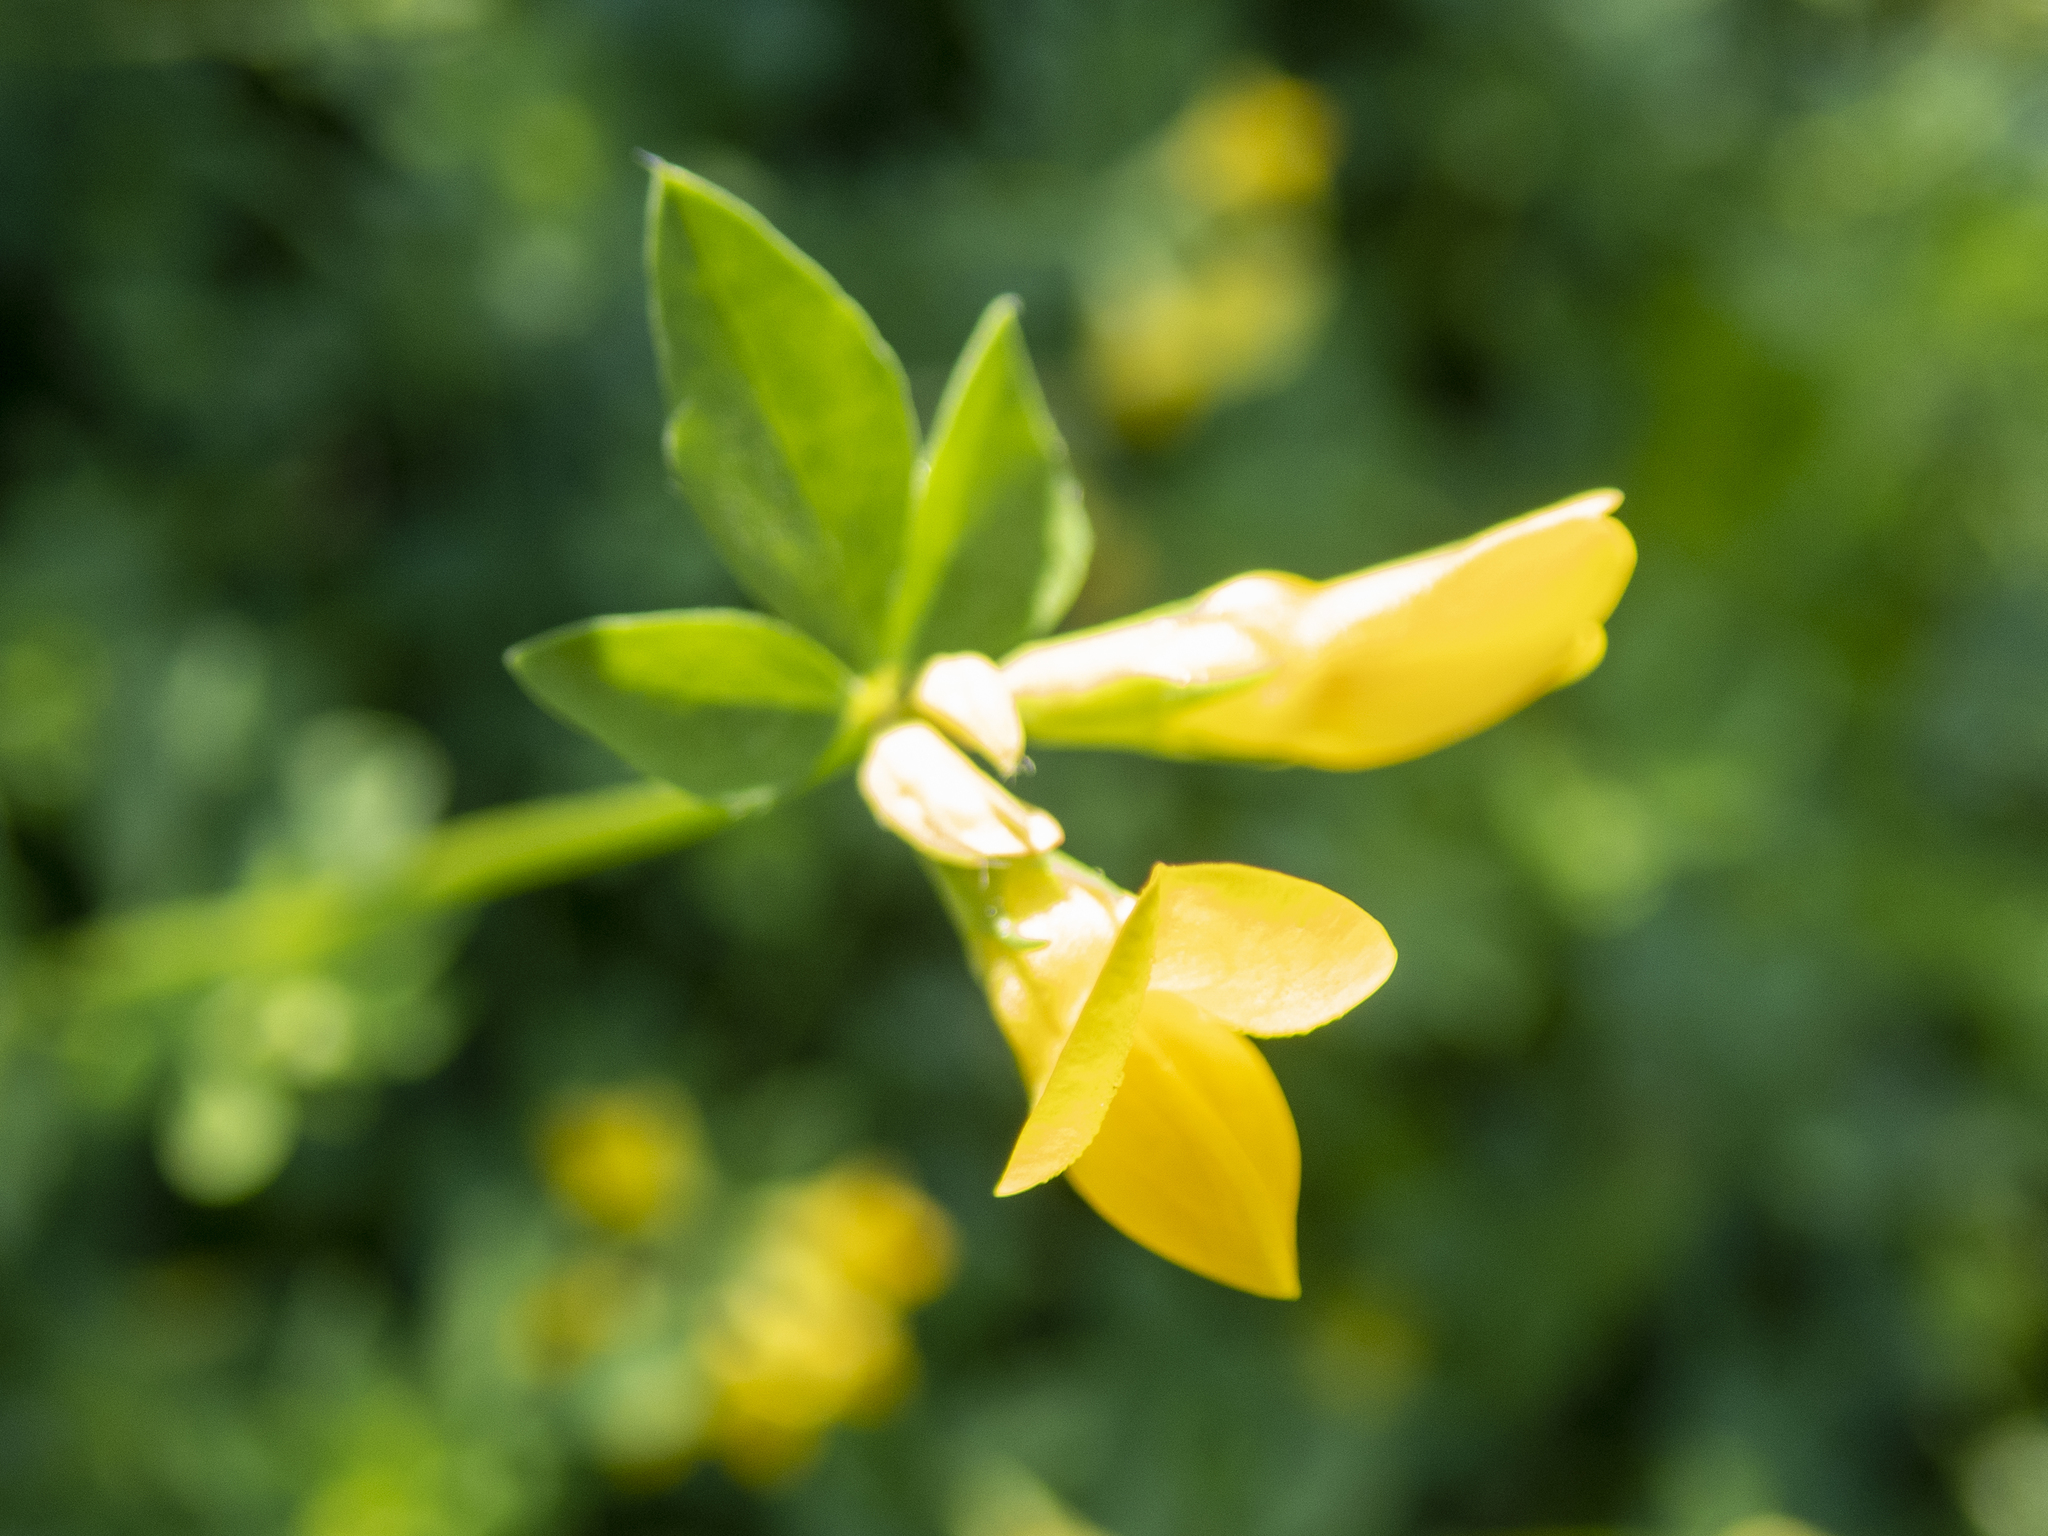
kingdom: Plantae
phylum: Tracheophyta
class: Magnoliopsida
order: Fabales
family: Fabaceae
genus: Lotus
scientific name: Lotus corniculatus
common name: Common bird's-foot-trefoil
